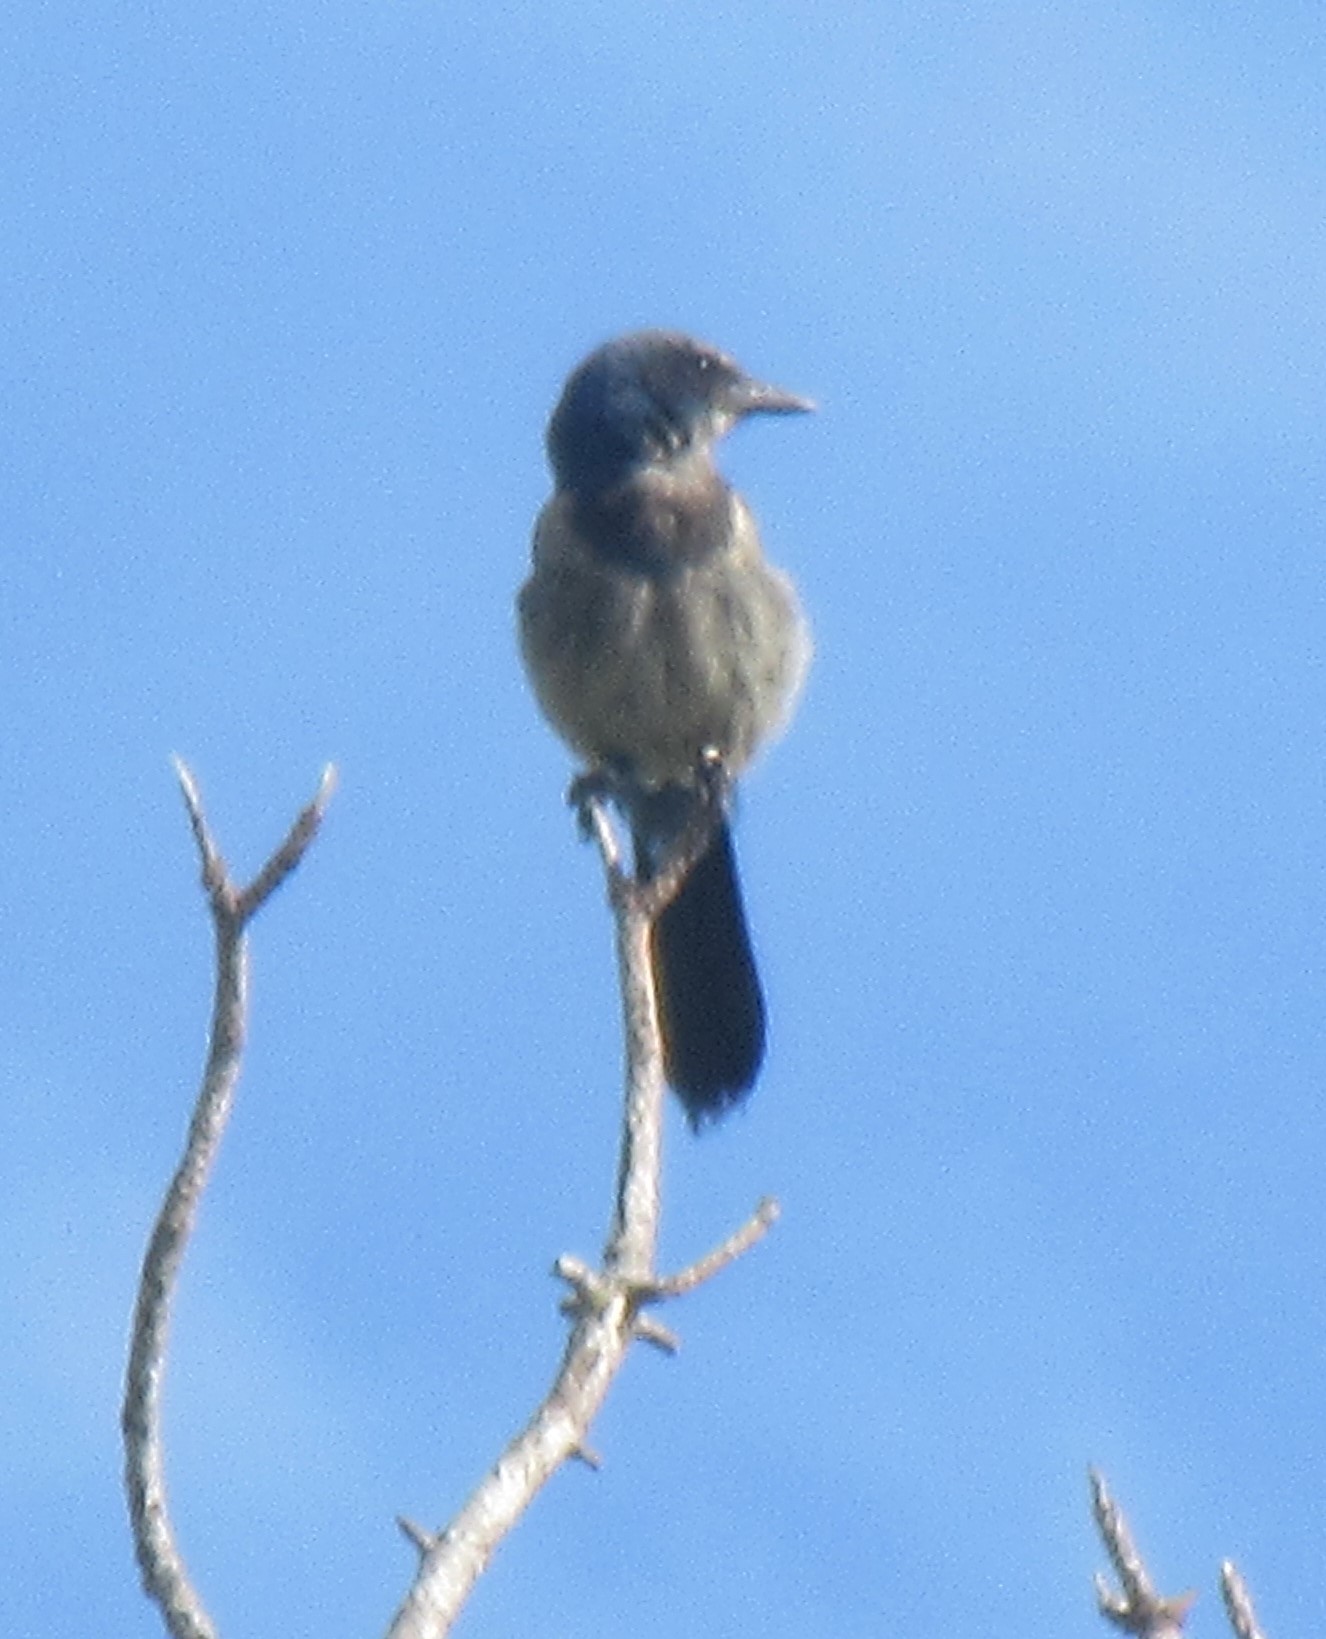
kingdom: Animalia
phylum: Chordata
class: Aves
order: Passeriformes
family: Corvidae
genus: Aphelocoma
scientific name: Aphelocoma coerulescens
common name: Florida scrub jay
